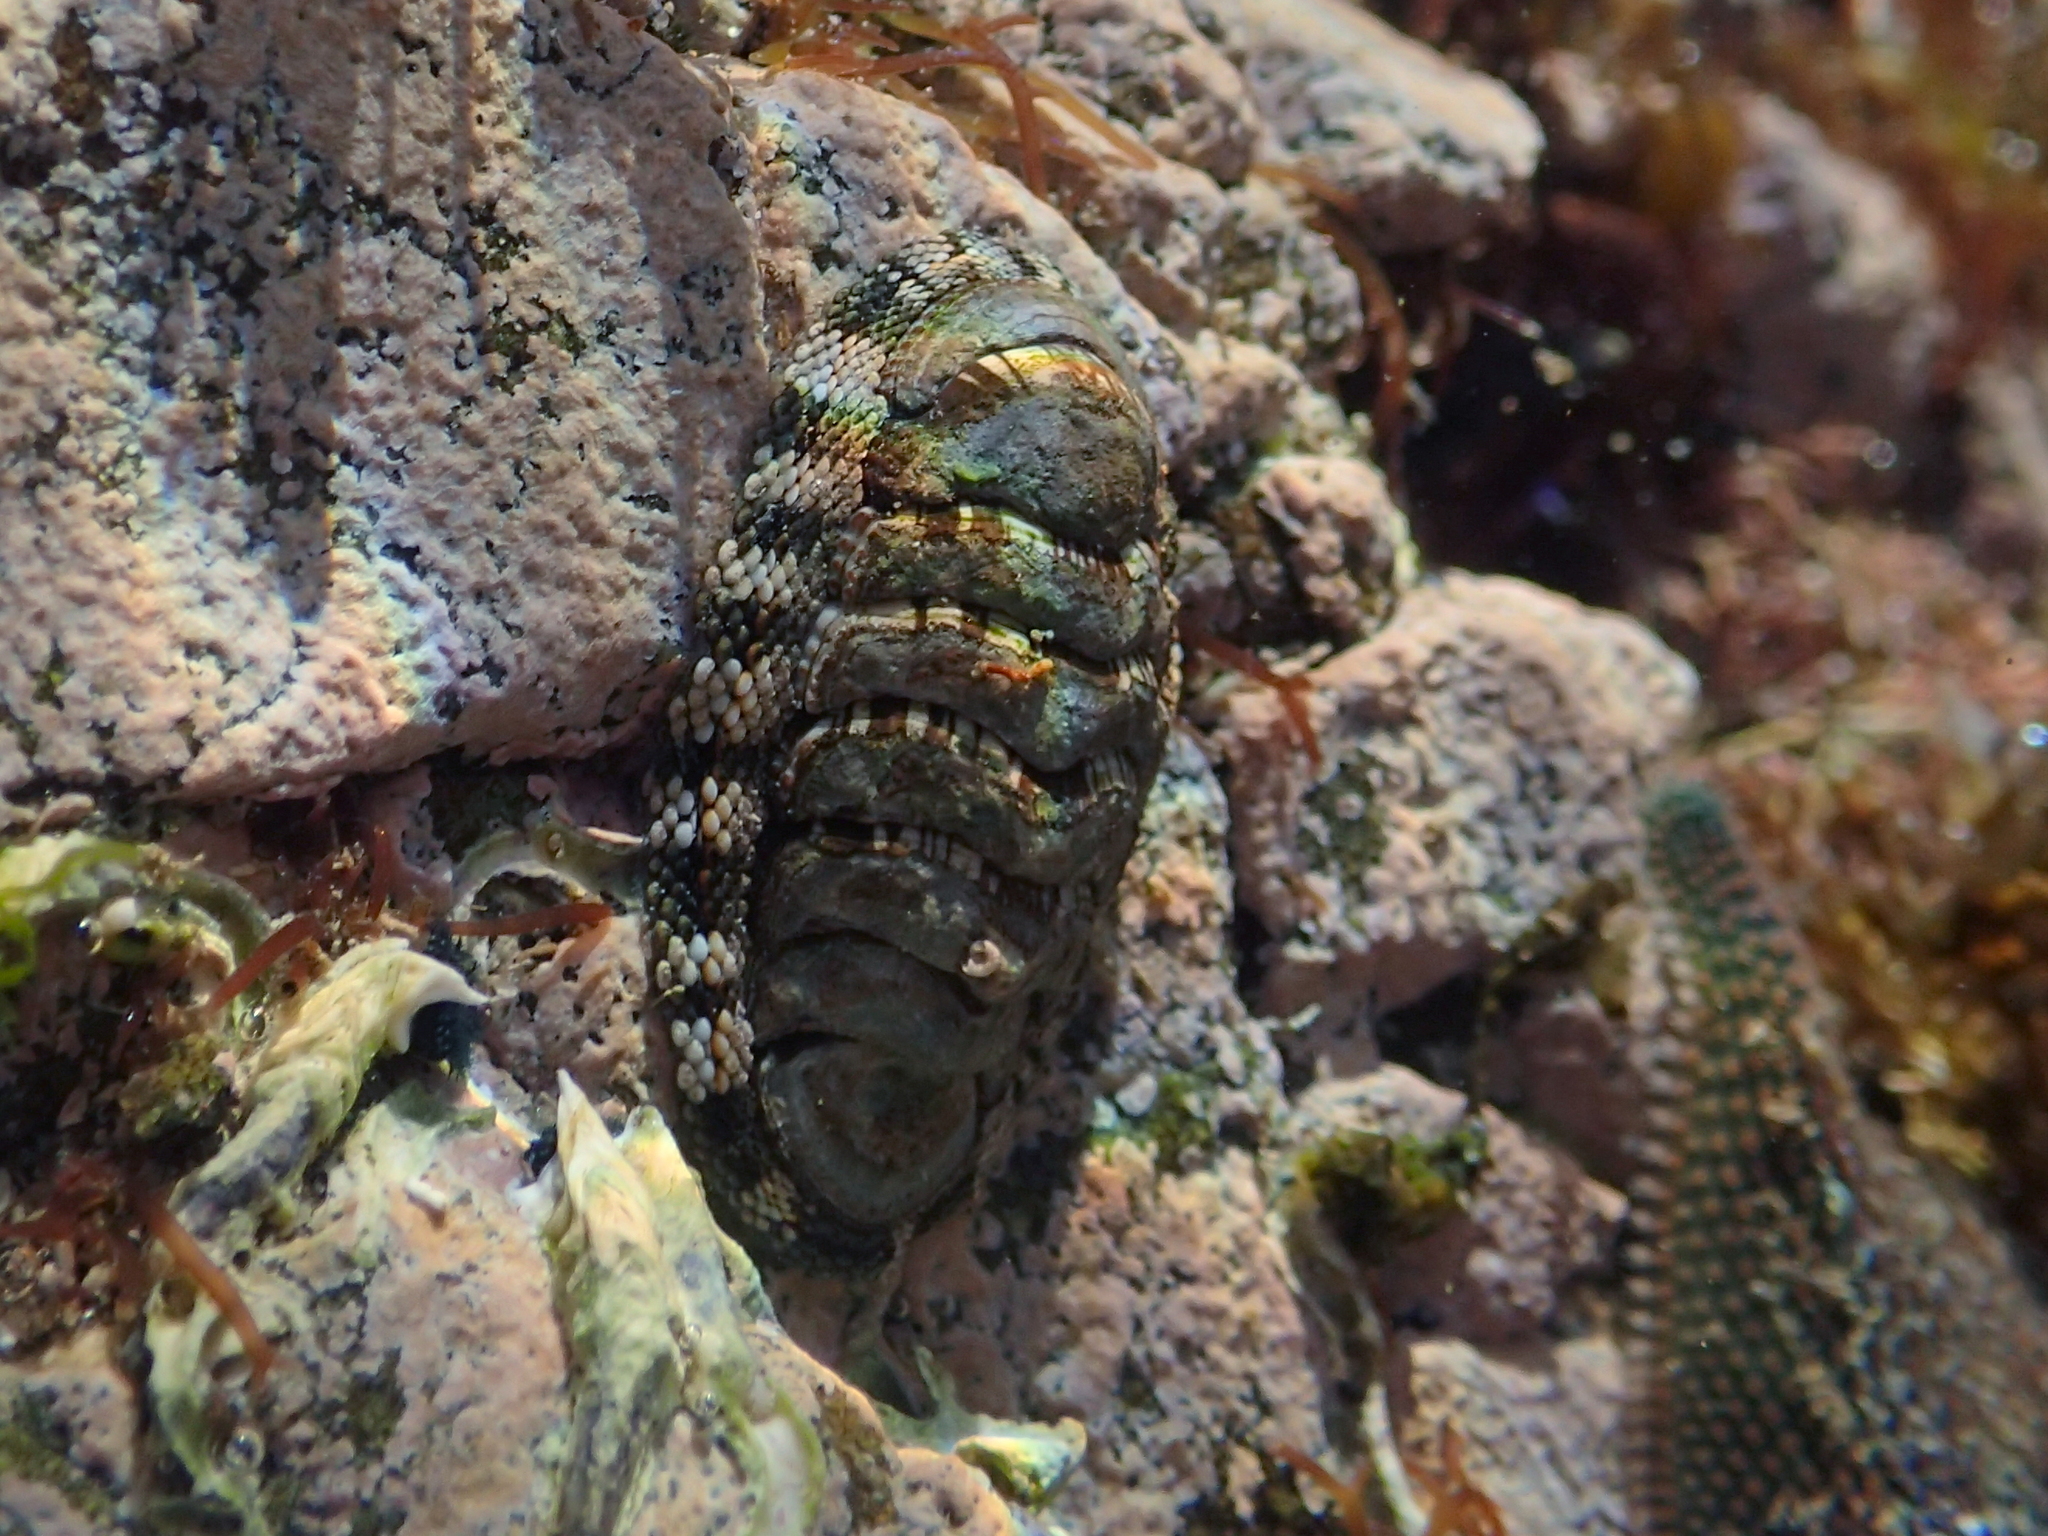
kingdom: Animalia
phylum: Mollusca
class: Polyplacophora
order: Chitonida
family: Chitonidae
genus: Sypharochiton
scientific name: Sypharochiton sinclairi
